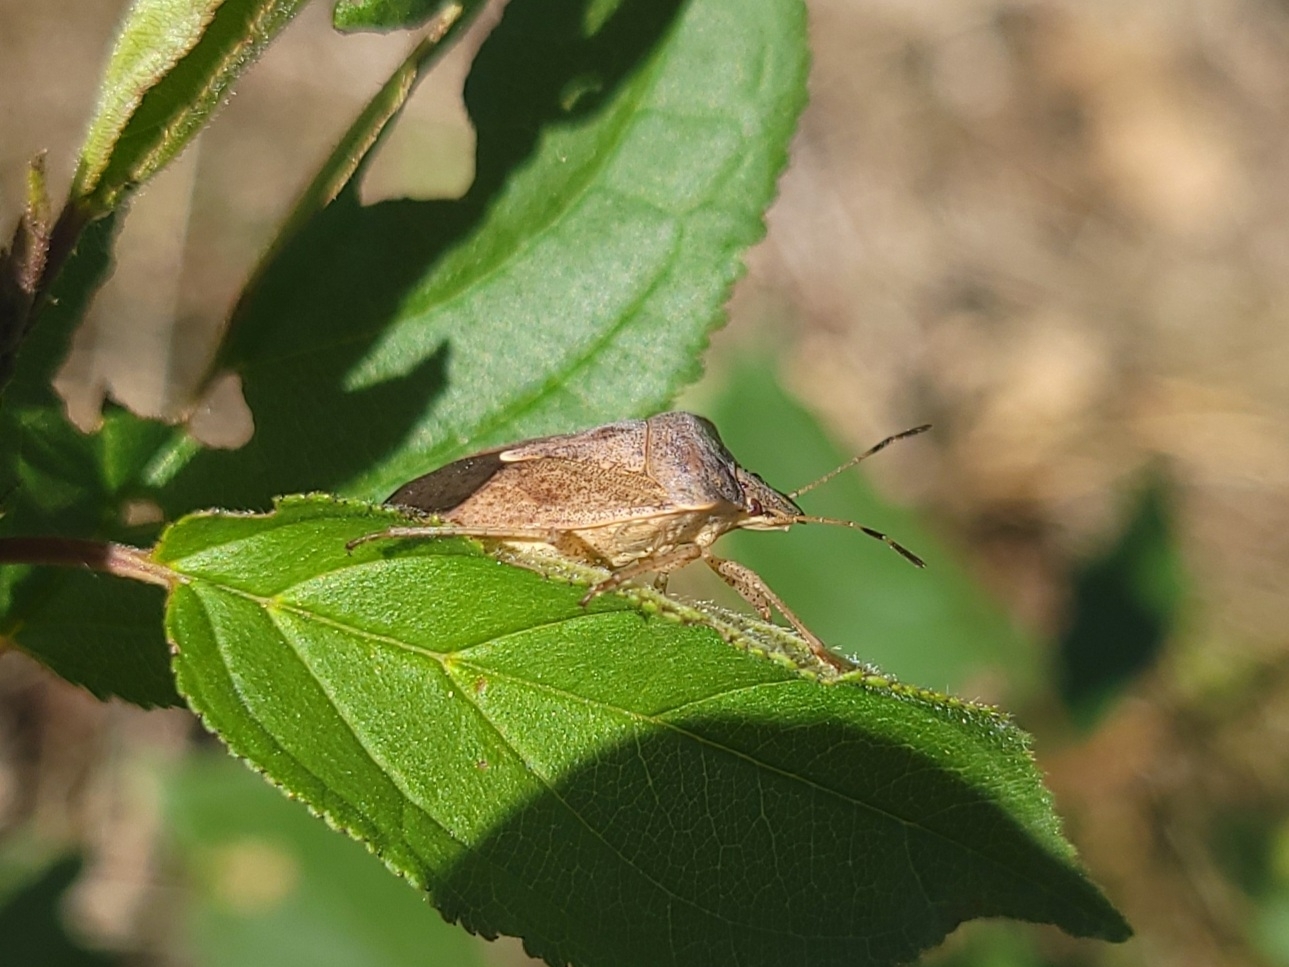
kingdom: Animalia
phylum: Arthropoda
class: Insecta
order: Hemiptera
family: Pentatomidae
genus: Euschistus
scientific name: Euschistus servus
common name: Brown stink bug
